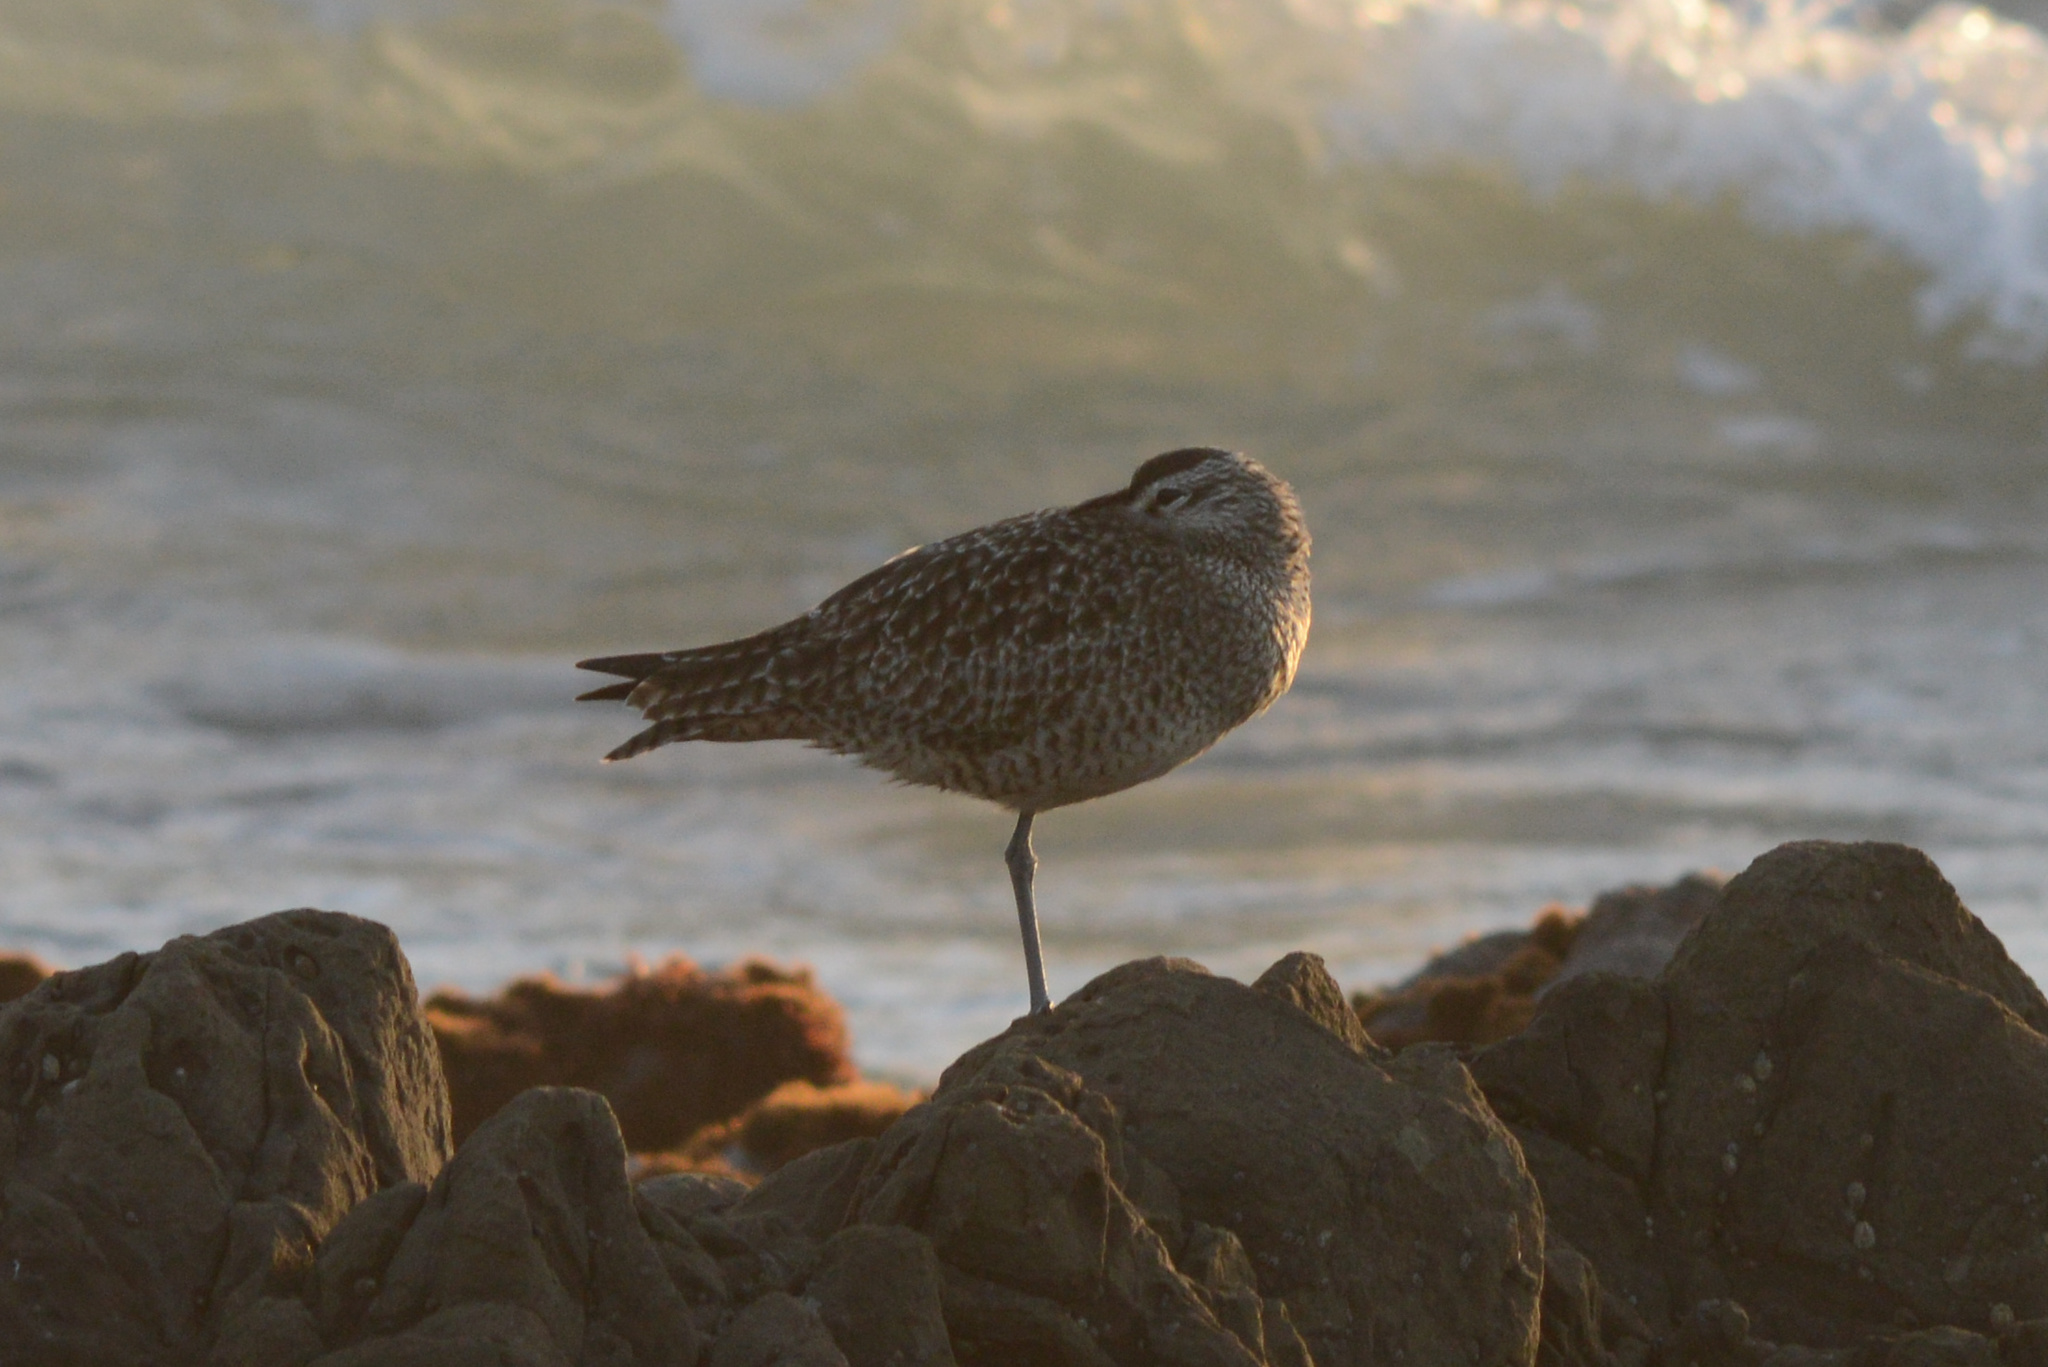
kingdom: Animalia
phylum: Chordata
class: Aves
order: Charadriiformes
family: Scolopacidae
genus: Numenius
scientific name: Numenius phaeopus
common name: Whimbrel
